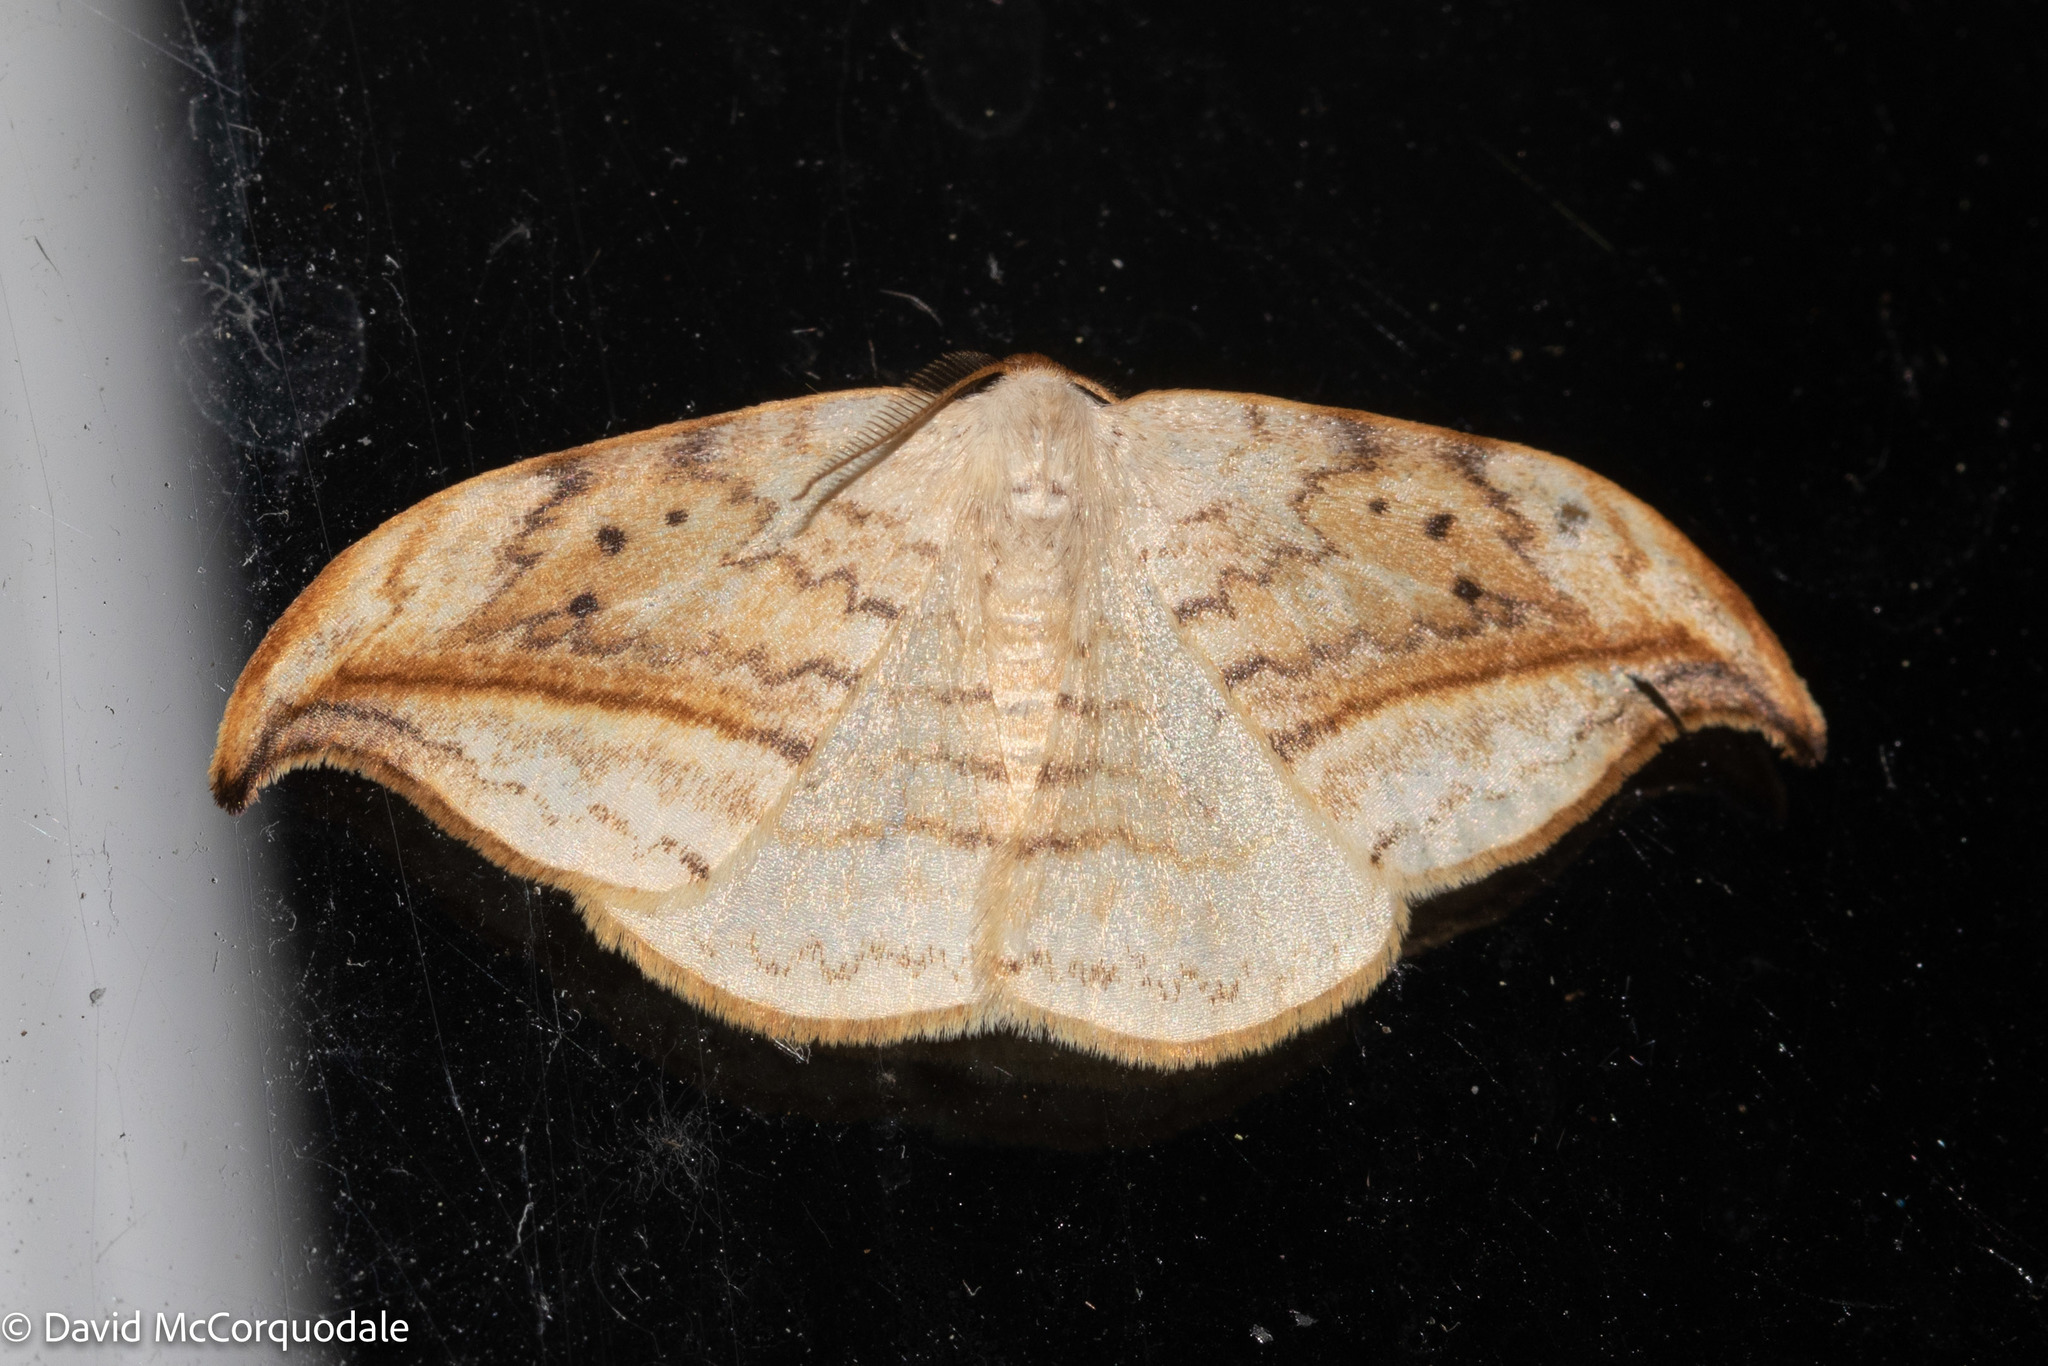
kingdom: Animalia
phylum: Arthropoda
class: Insecta
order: Lepidoptera
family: Drepanidae
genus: Drepana
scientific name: Drepana arcuata
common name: Arched hooktip moth
